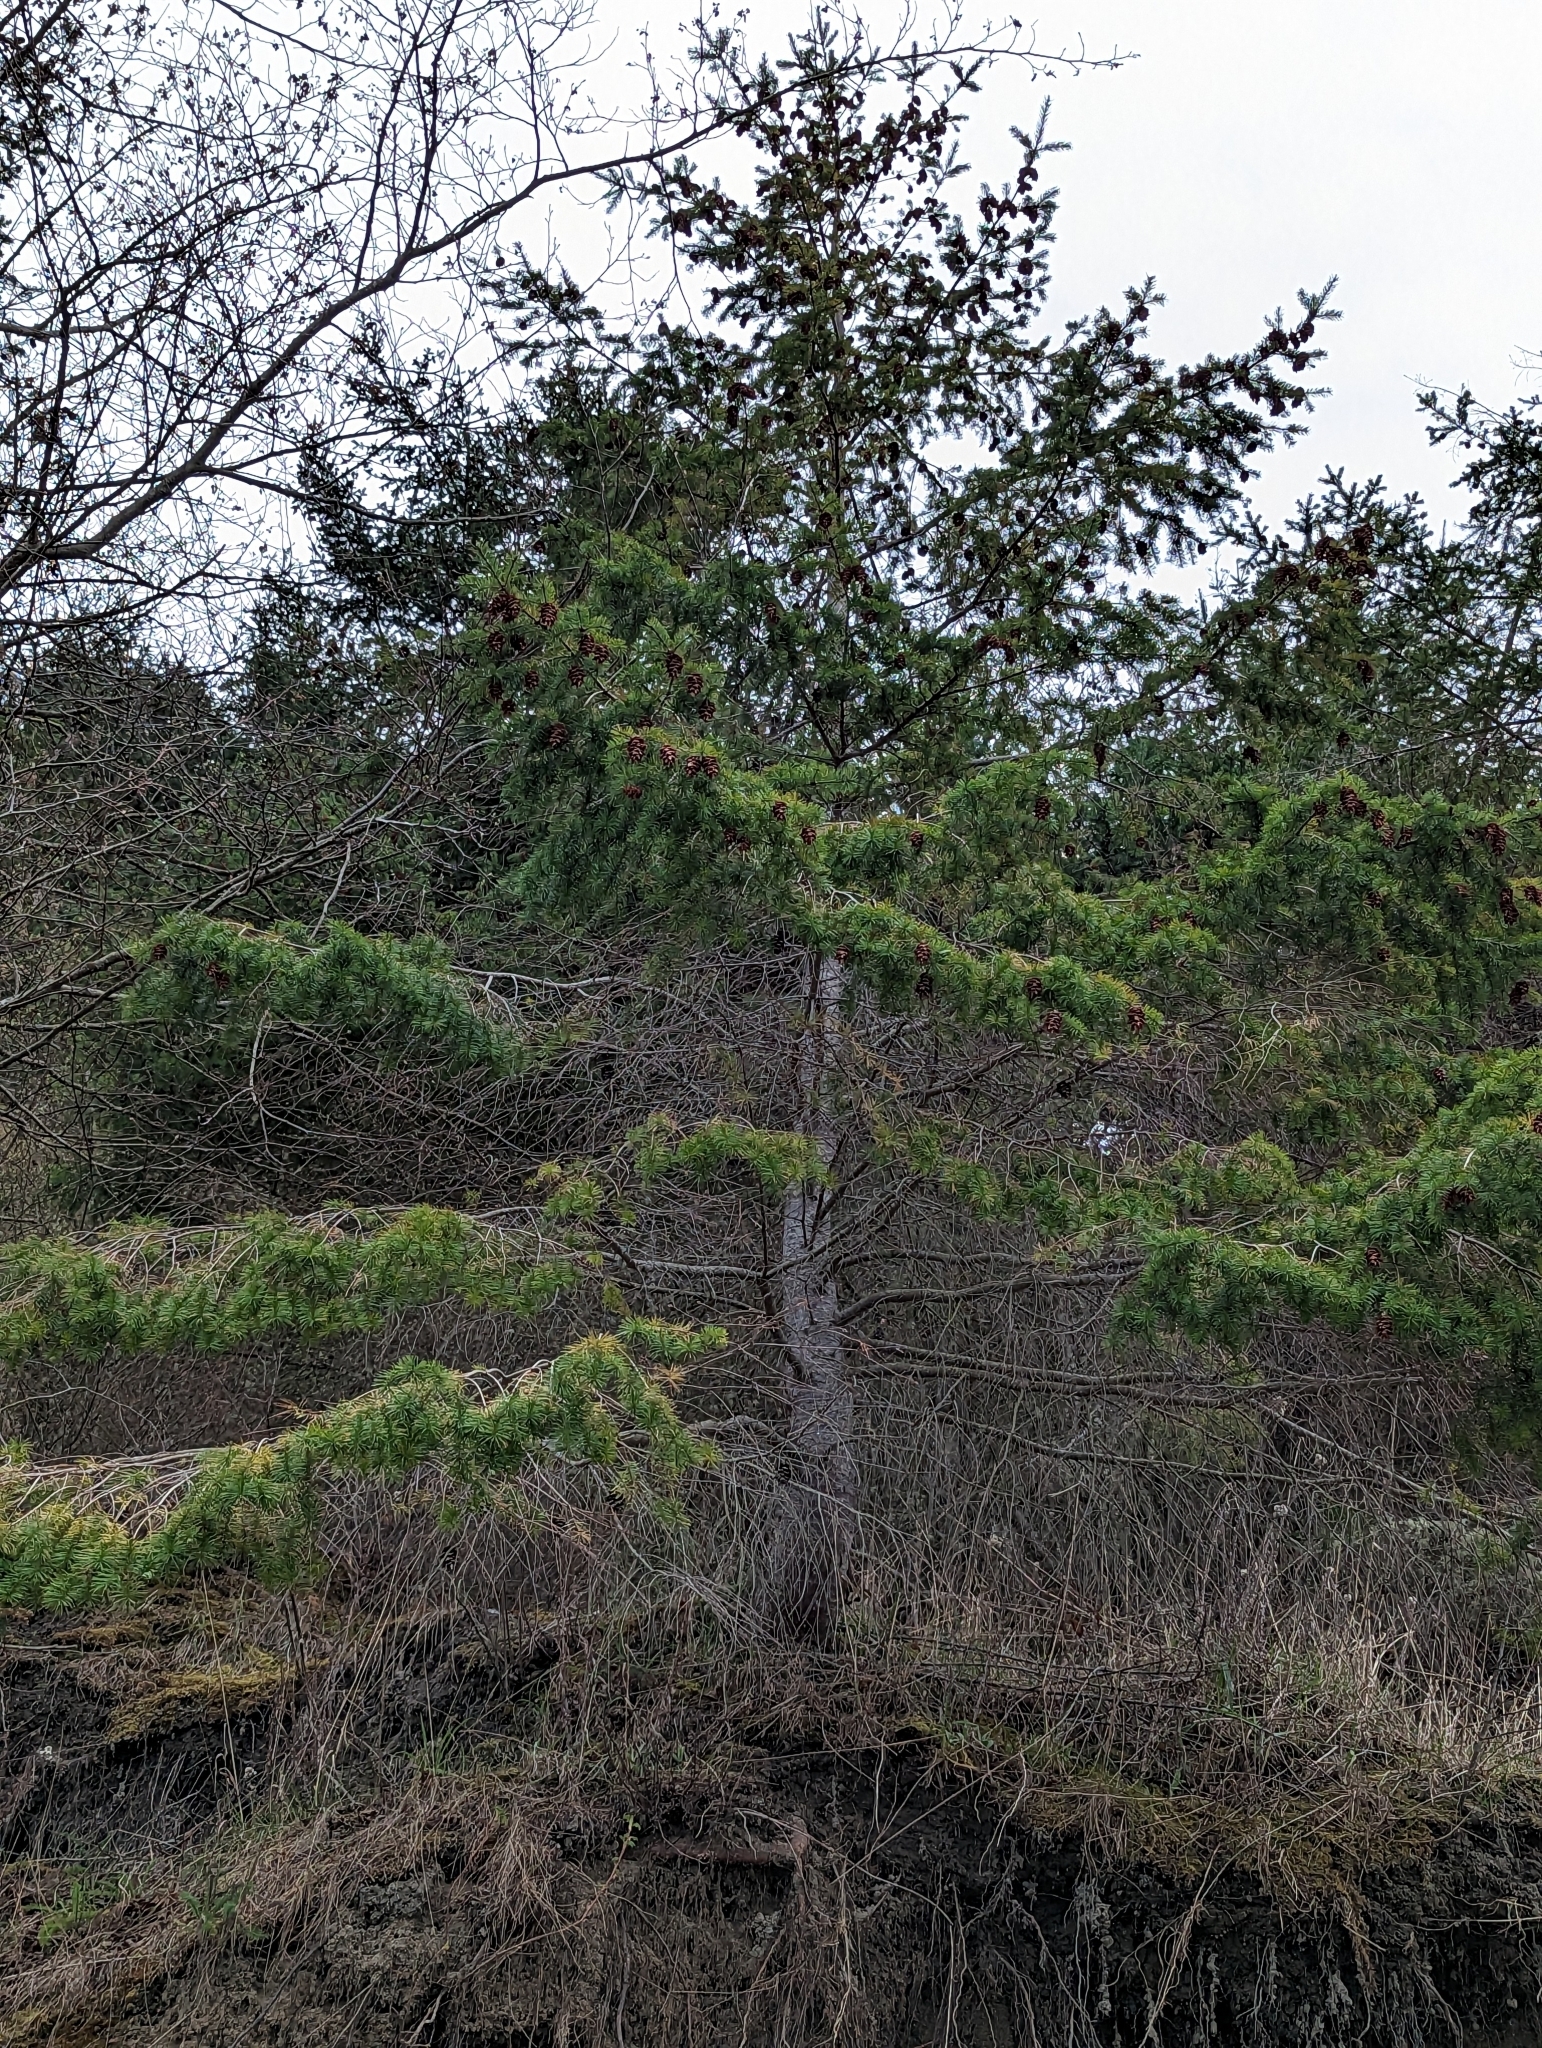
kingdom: Plantae
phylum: Tracheophyta
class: Pinopsida
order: Pinales
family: Pinaceae
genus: Pseudotsuga
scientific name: Pseudotsuga menziesii
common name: Douglas fir
